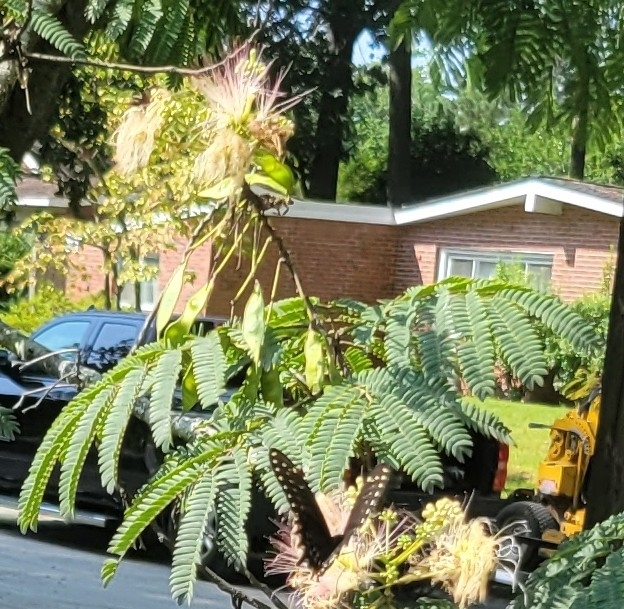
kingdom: Plantae
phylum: Tracheophyta
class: Magnoliopsida
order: Fabales
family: Fabaceae
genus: Albizia
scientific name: Albizia julibrissin
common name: Silktree
